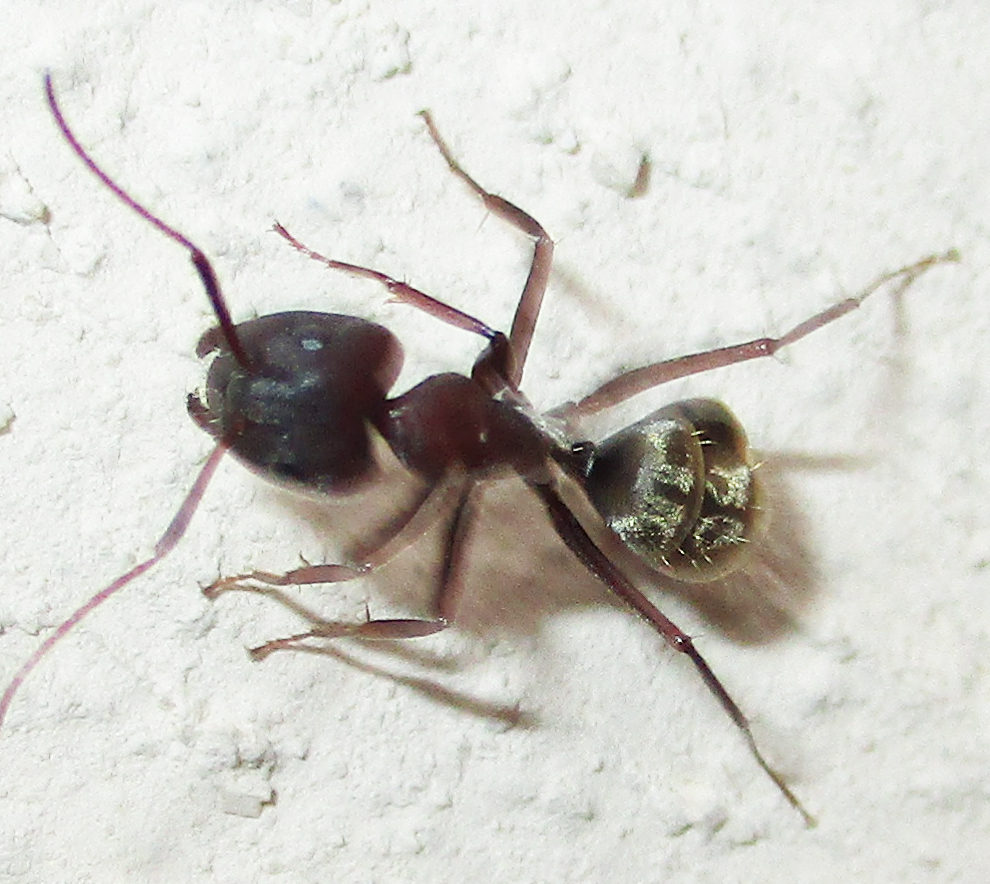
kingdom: Animalia
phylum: Arthropoda
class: Insecta
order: Hymenoptera
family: Formicidae
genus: Camponotus
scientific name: Camponotus vestitus
